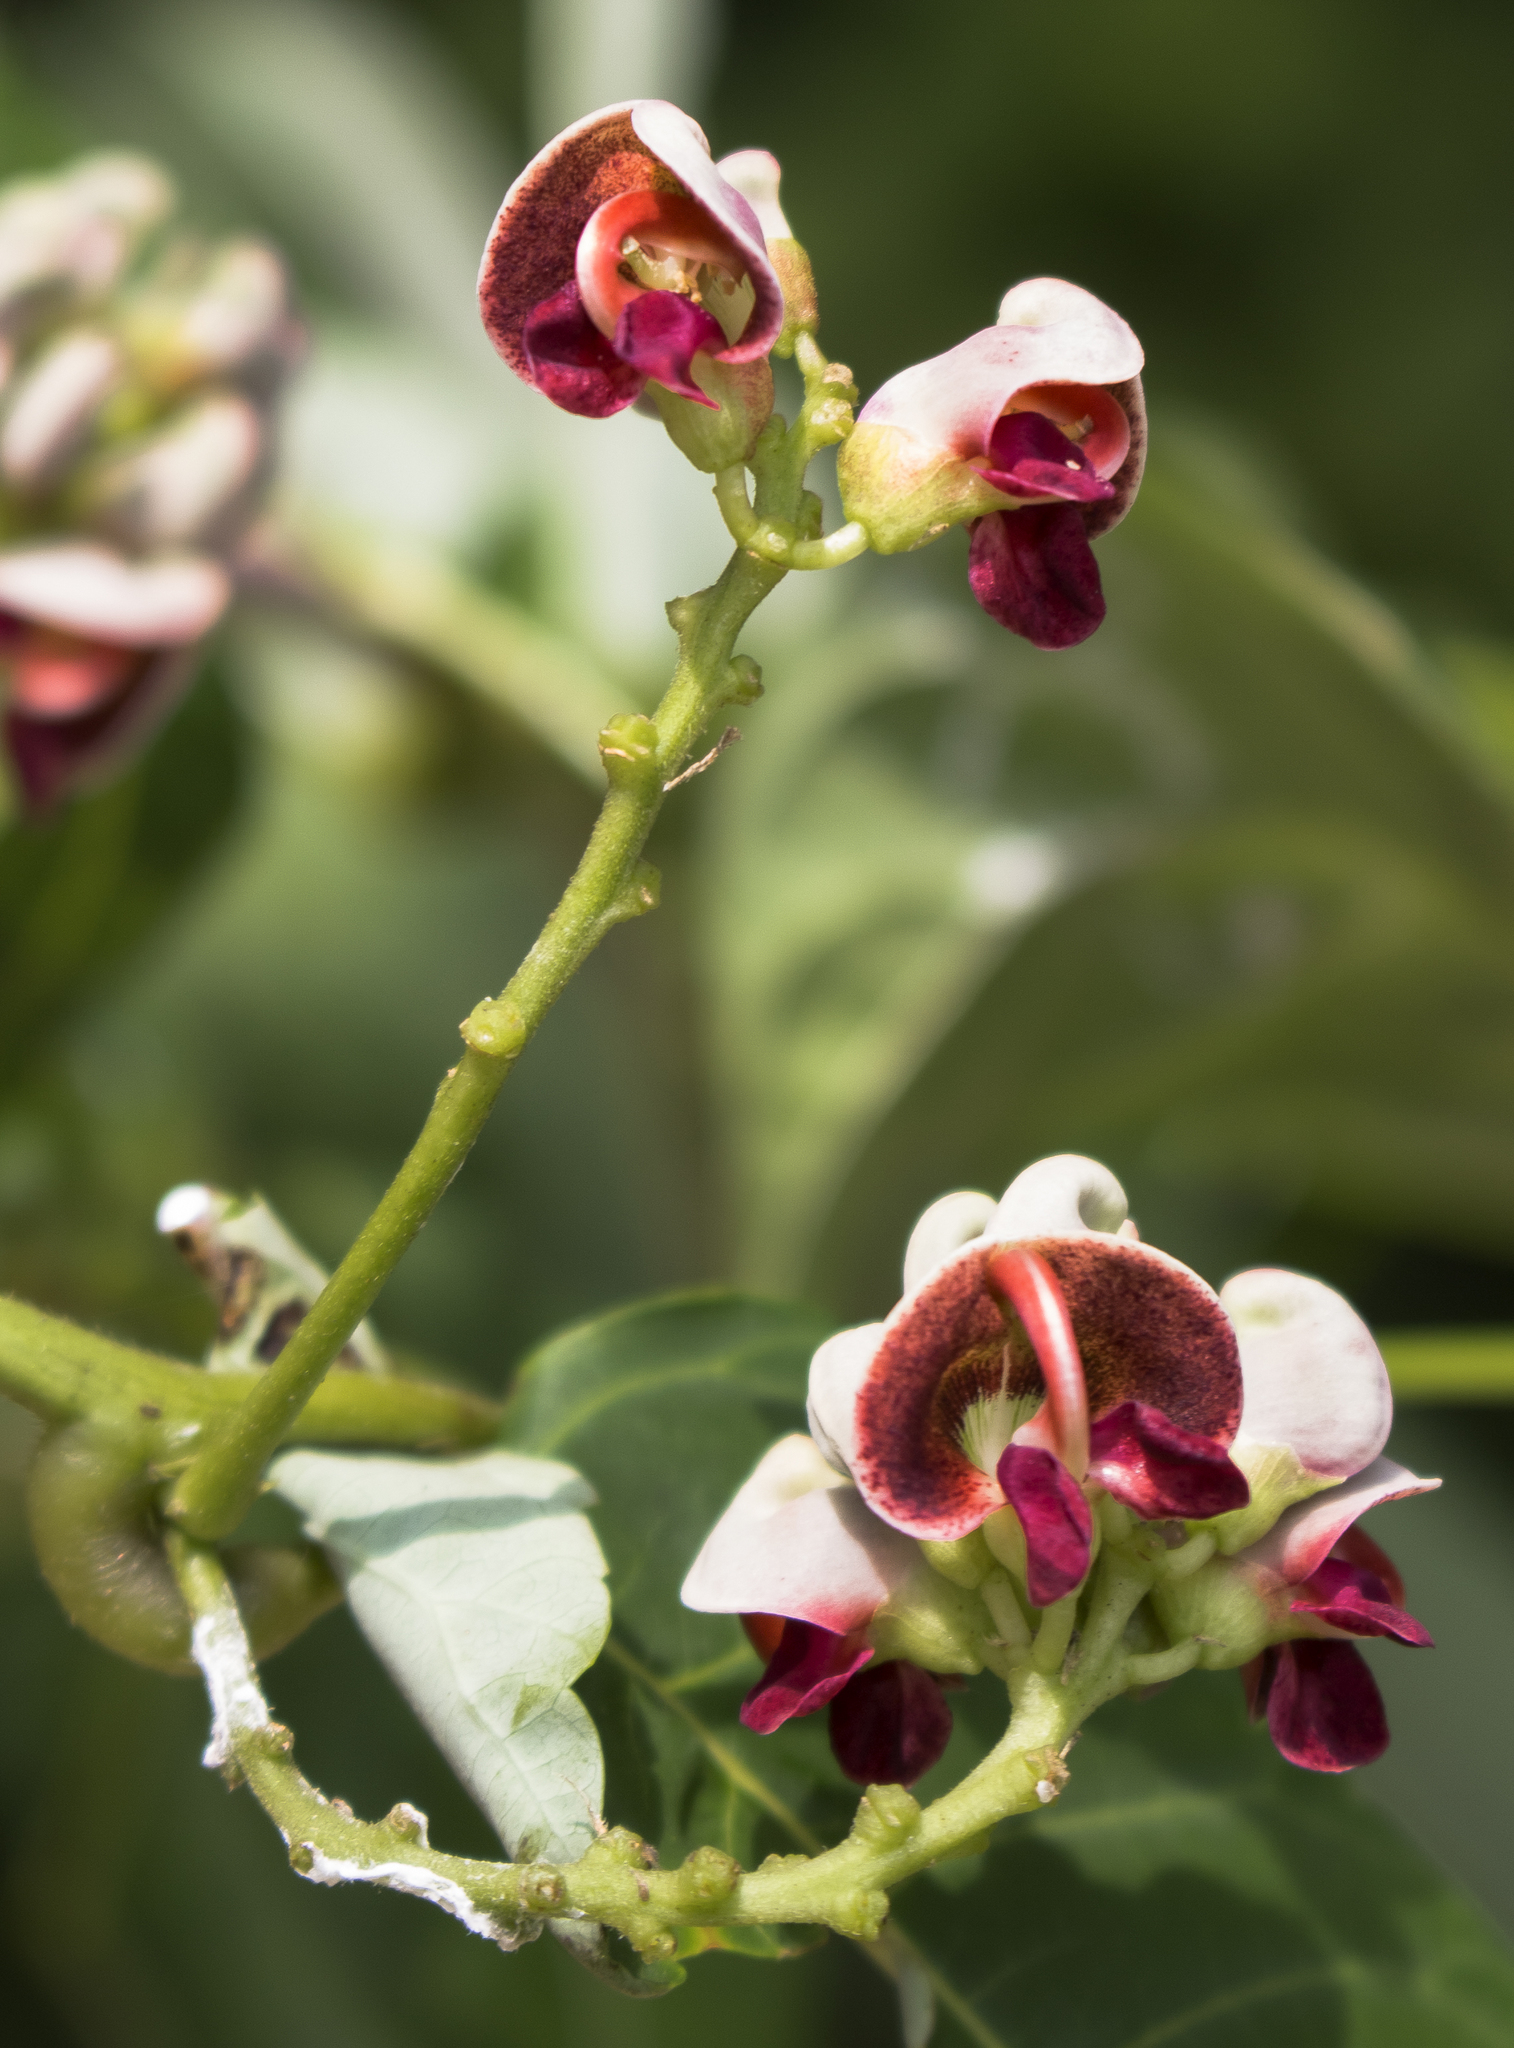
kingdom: Plantae
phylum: Tracheophyta
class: Magnoliopsida
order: Fabales
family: Fabaceae
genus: Apios
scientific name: Apios americana
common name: American potato-bean
